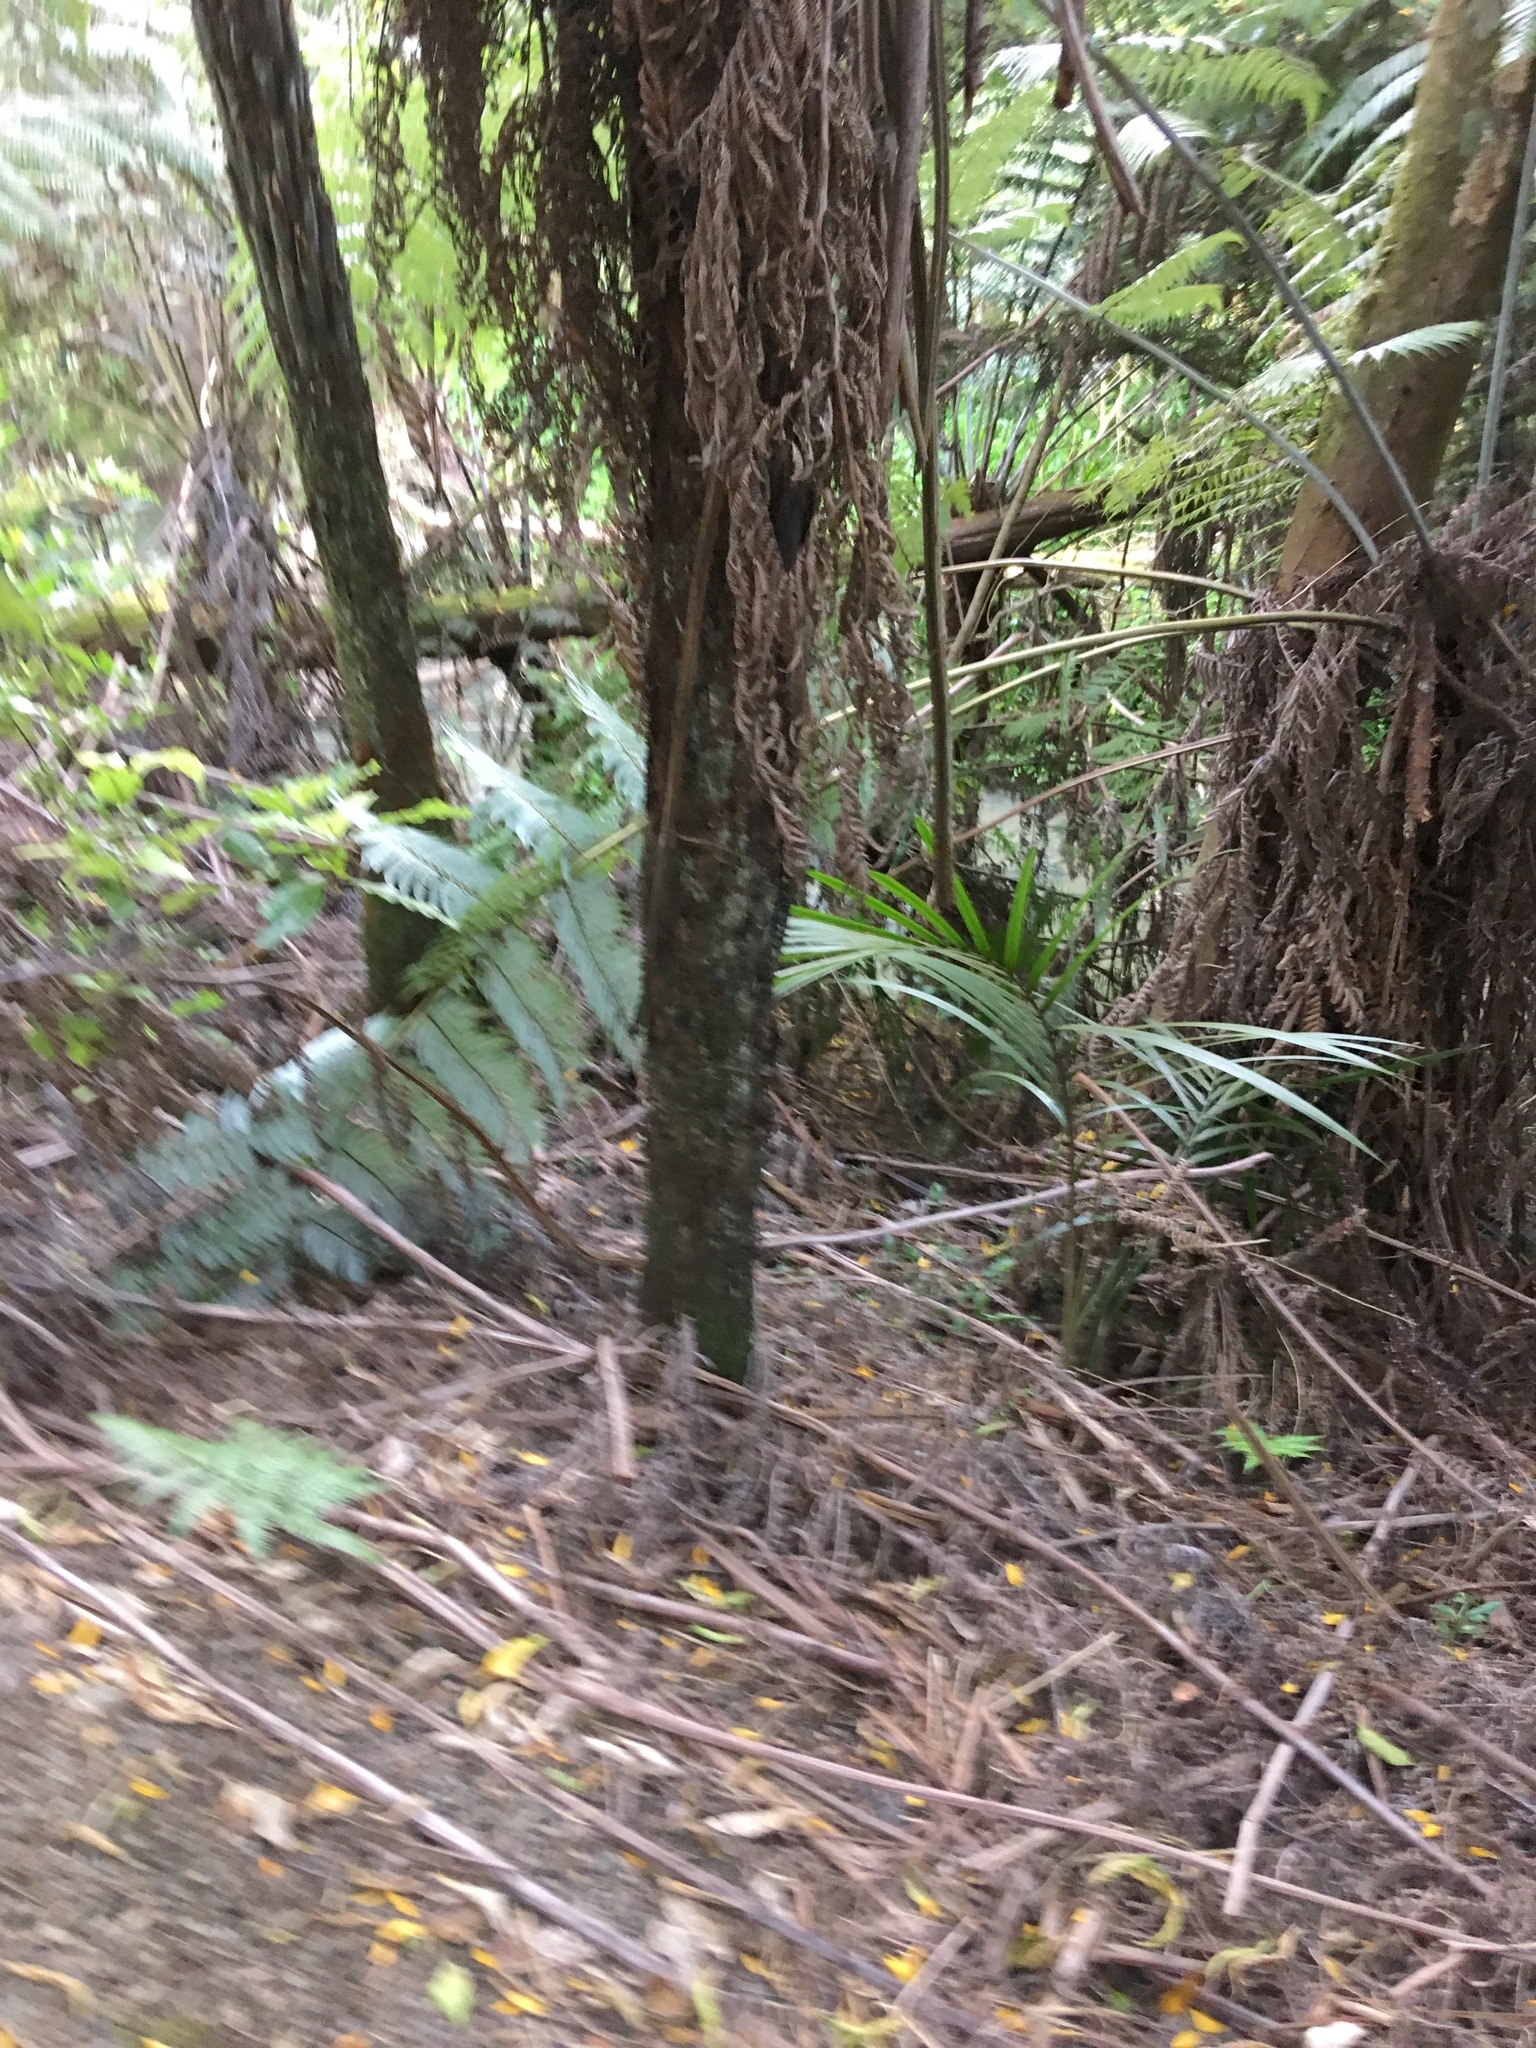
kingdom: Plantae
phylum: Tracheophyta
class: Polypodiopsida
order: Cyatheales
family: Cyatheaceae
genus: Alsophila
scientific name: Alsophila dealbata
